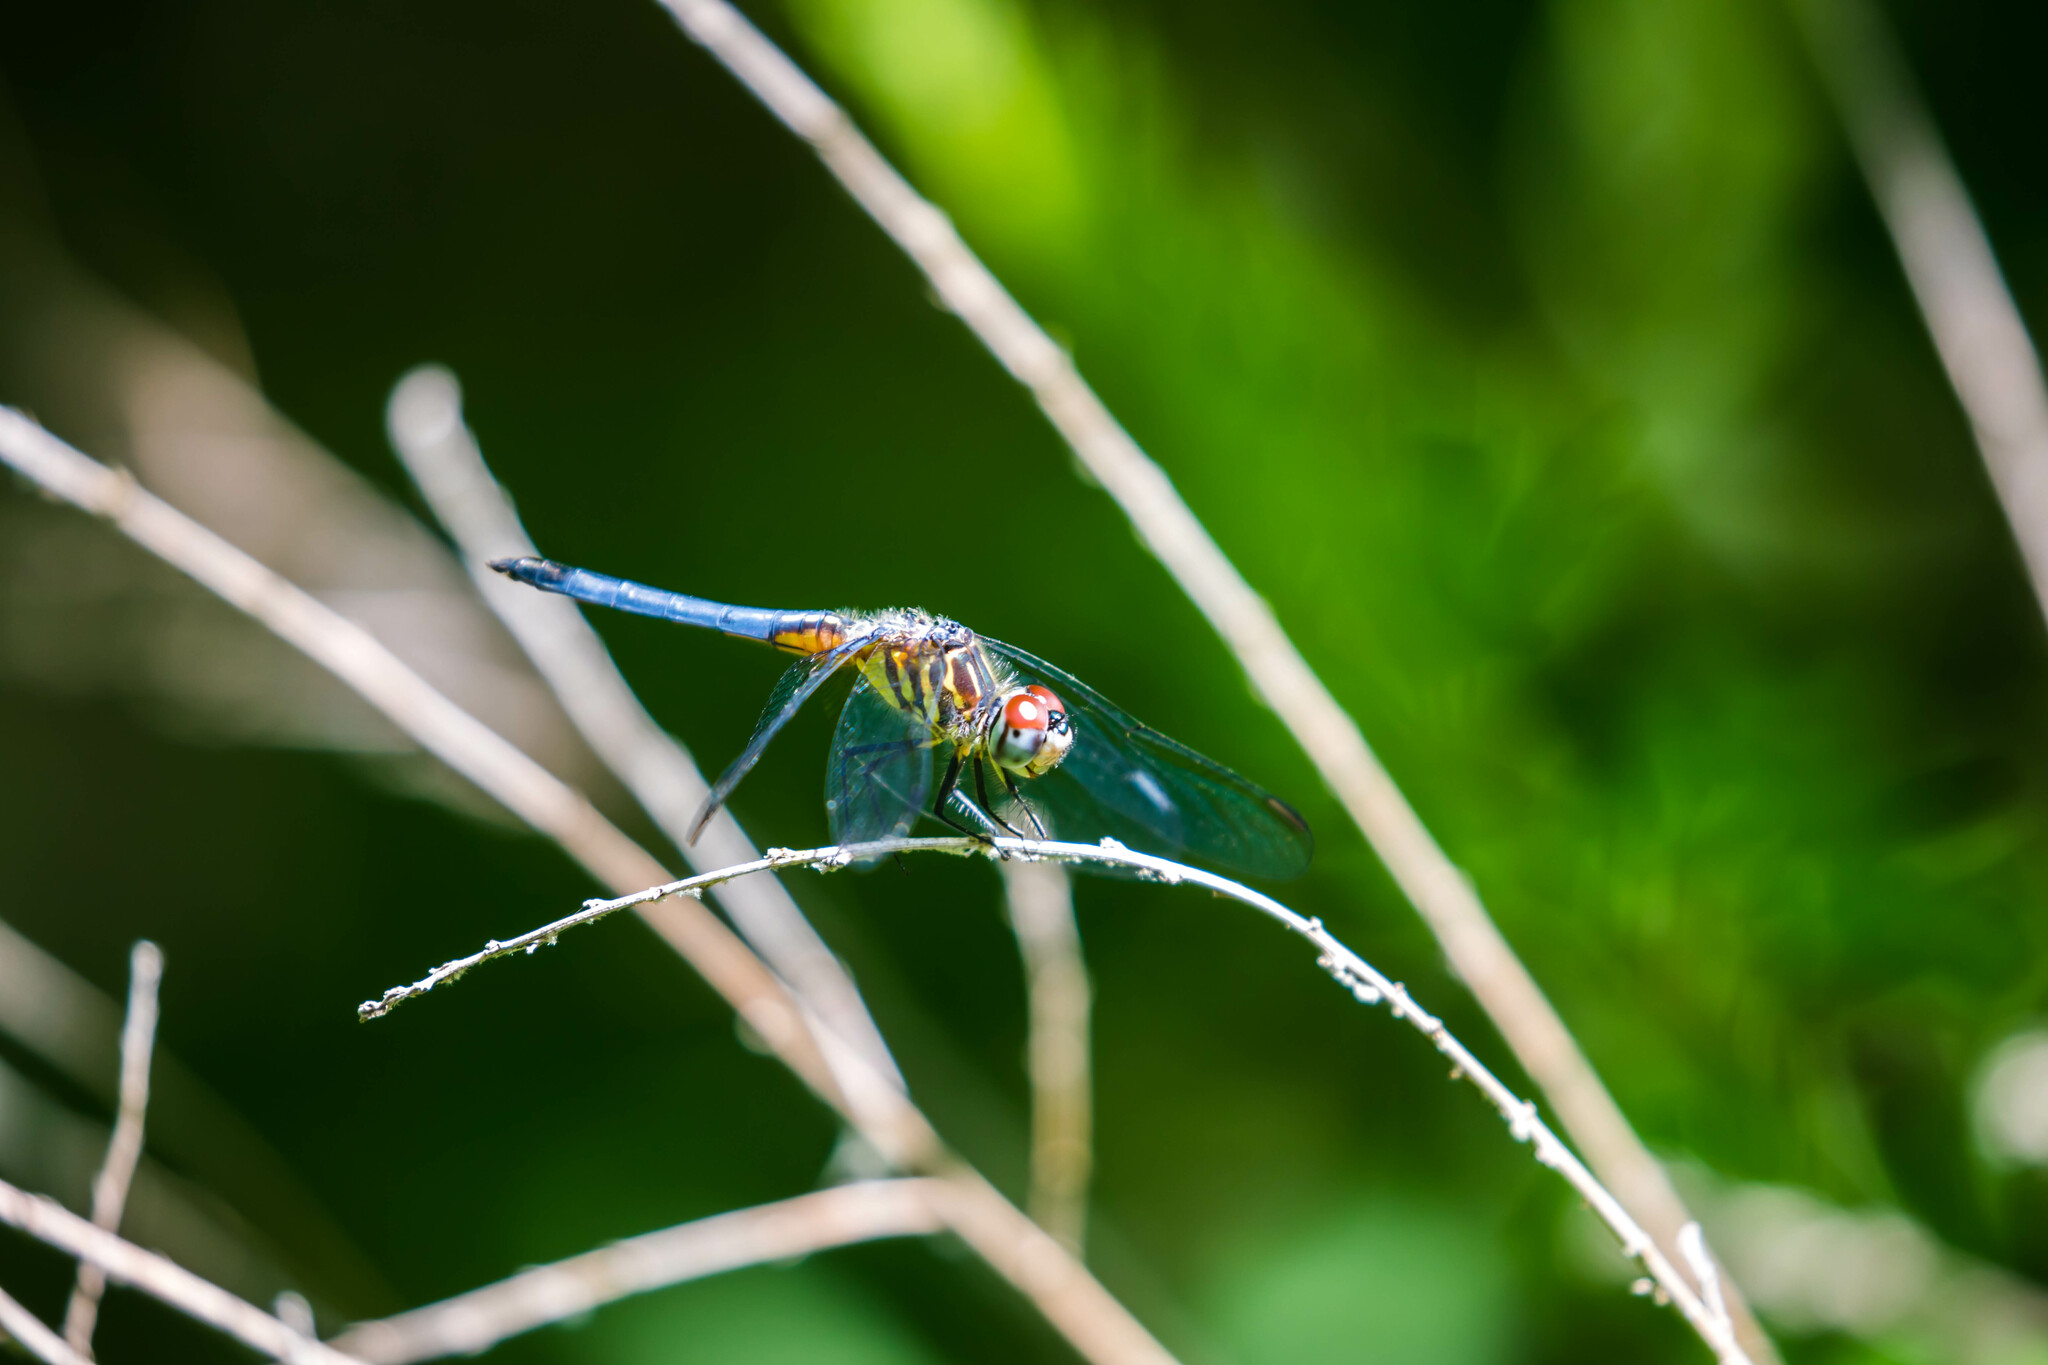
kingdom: Animalia
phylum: Arthropoda
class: Insecta
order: Odonata
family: Libellulidae
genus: Pachydiplax
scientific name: Pachydiplax longipennis
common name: Blue dasher
